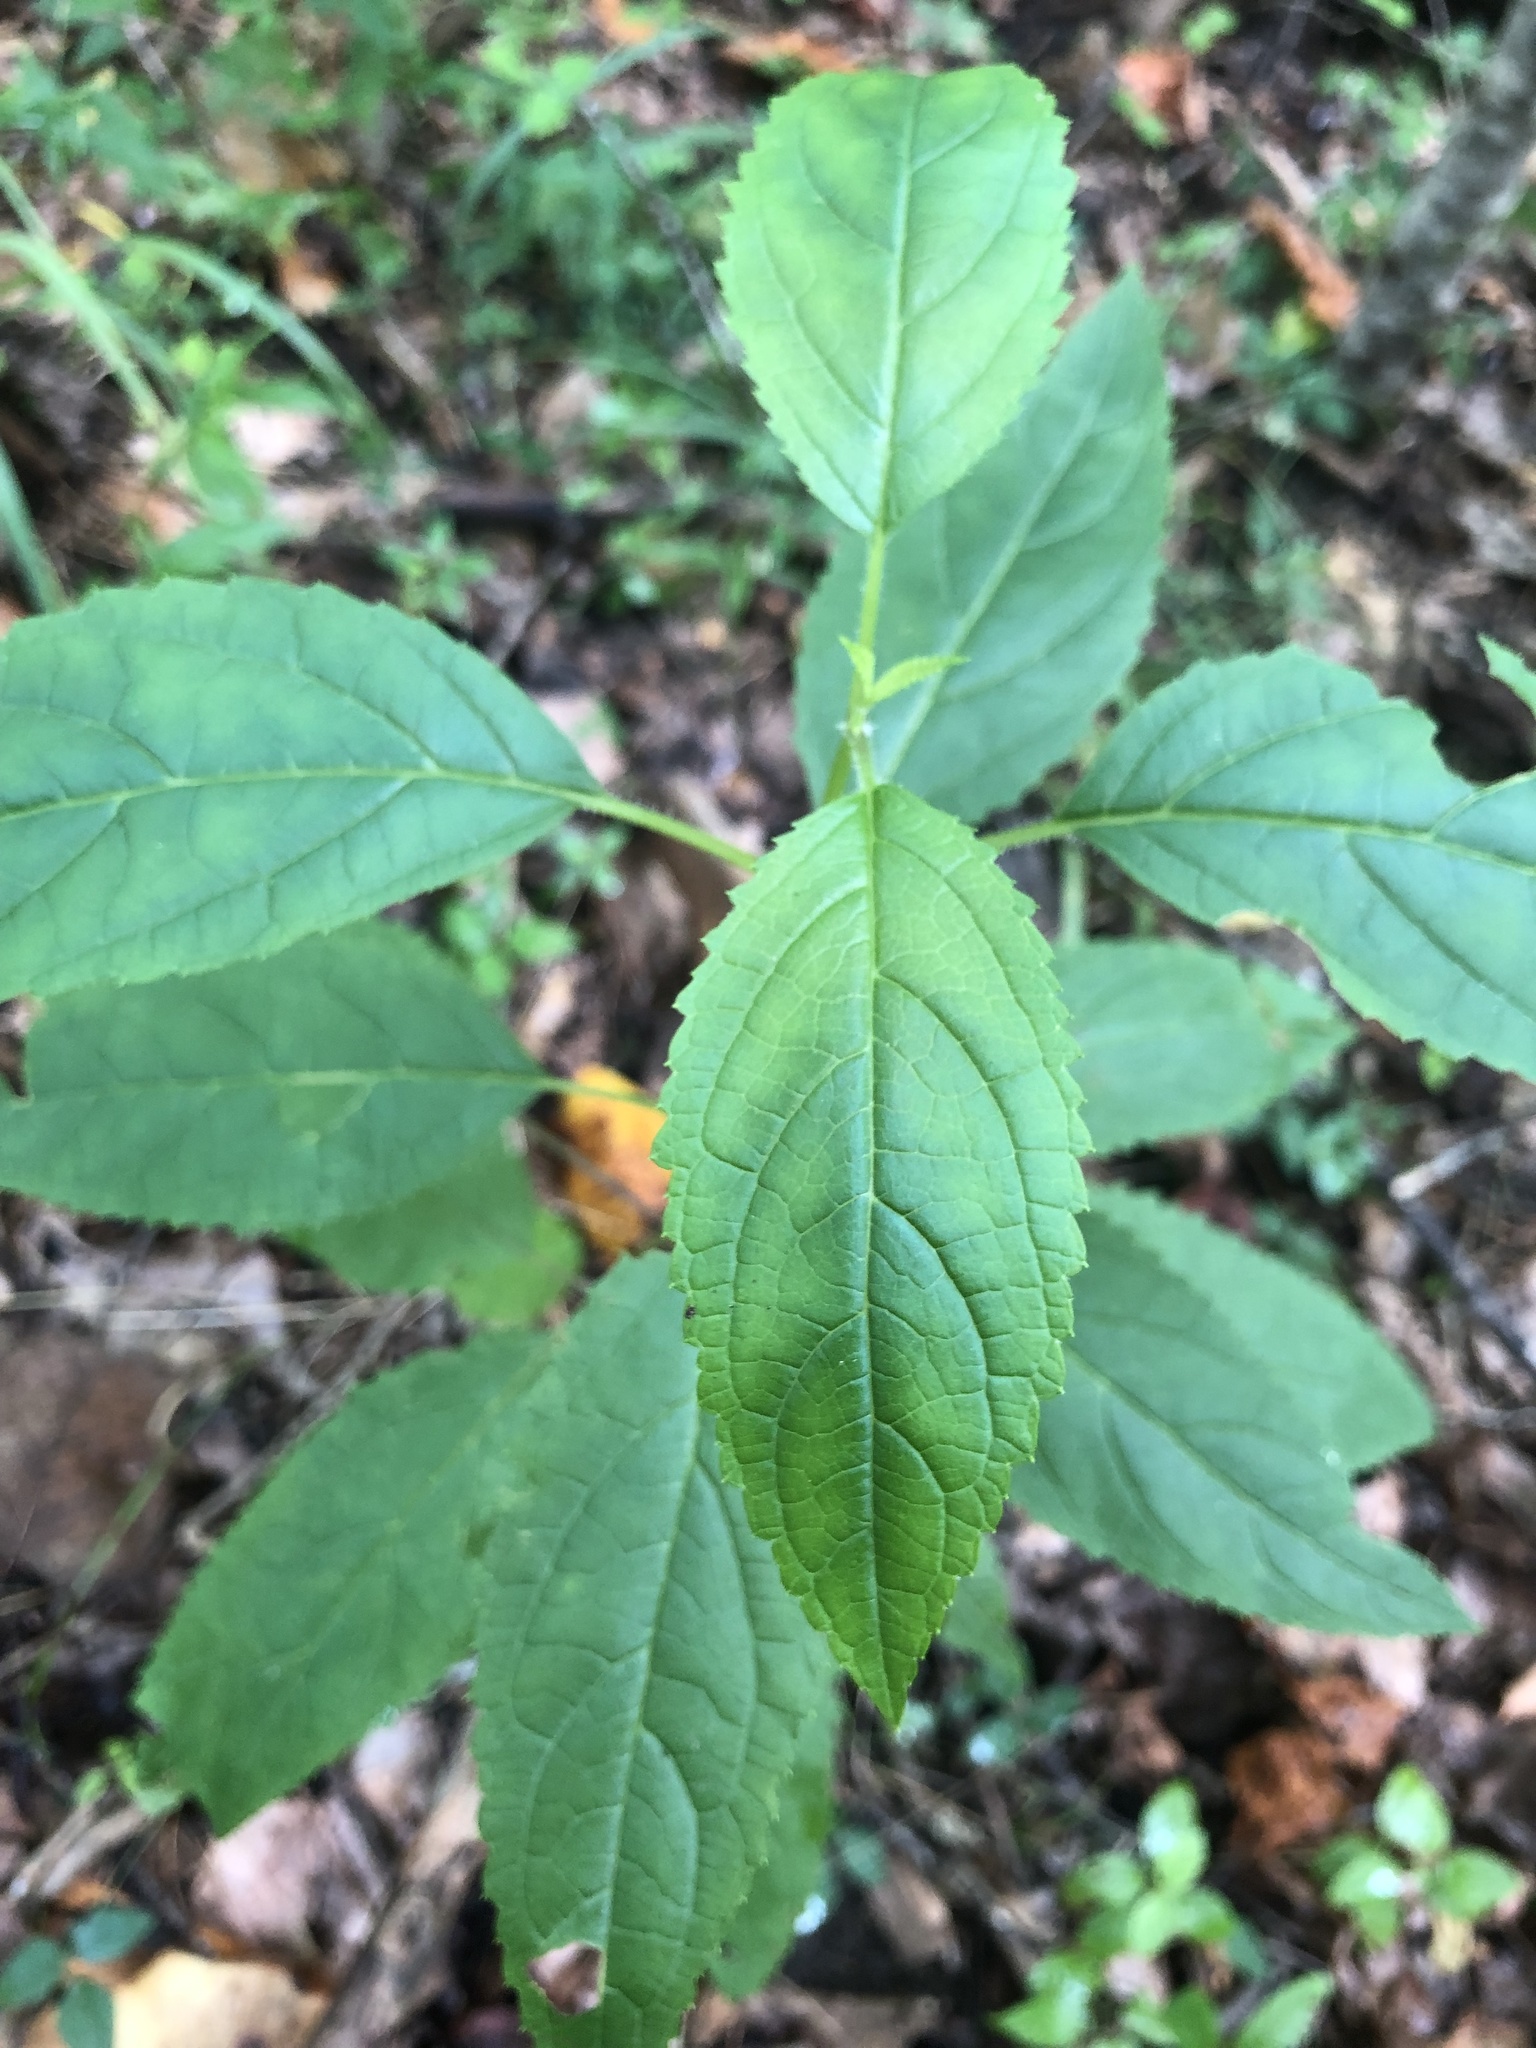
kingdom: Plantae
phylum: Tracheophyta
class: Magnoliopsida
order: Lamiales
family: Scrophulariaceae
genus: Scrophularia
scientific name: Scrophularia marilandica
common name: Eastern figwort
